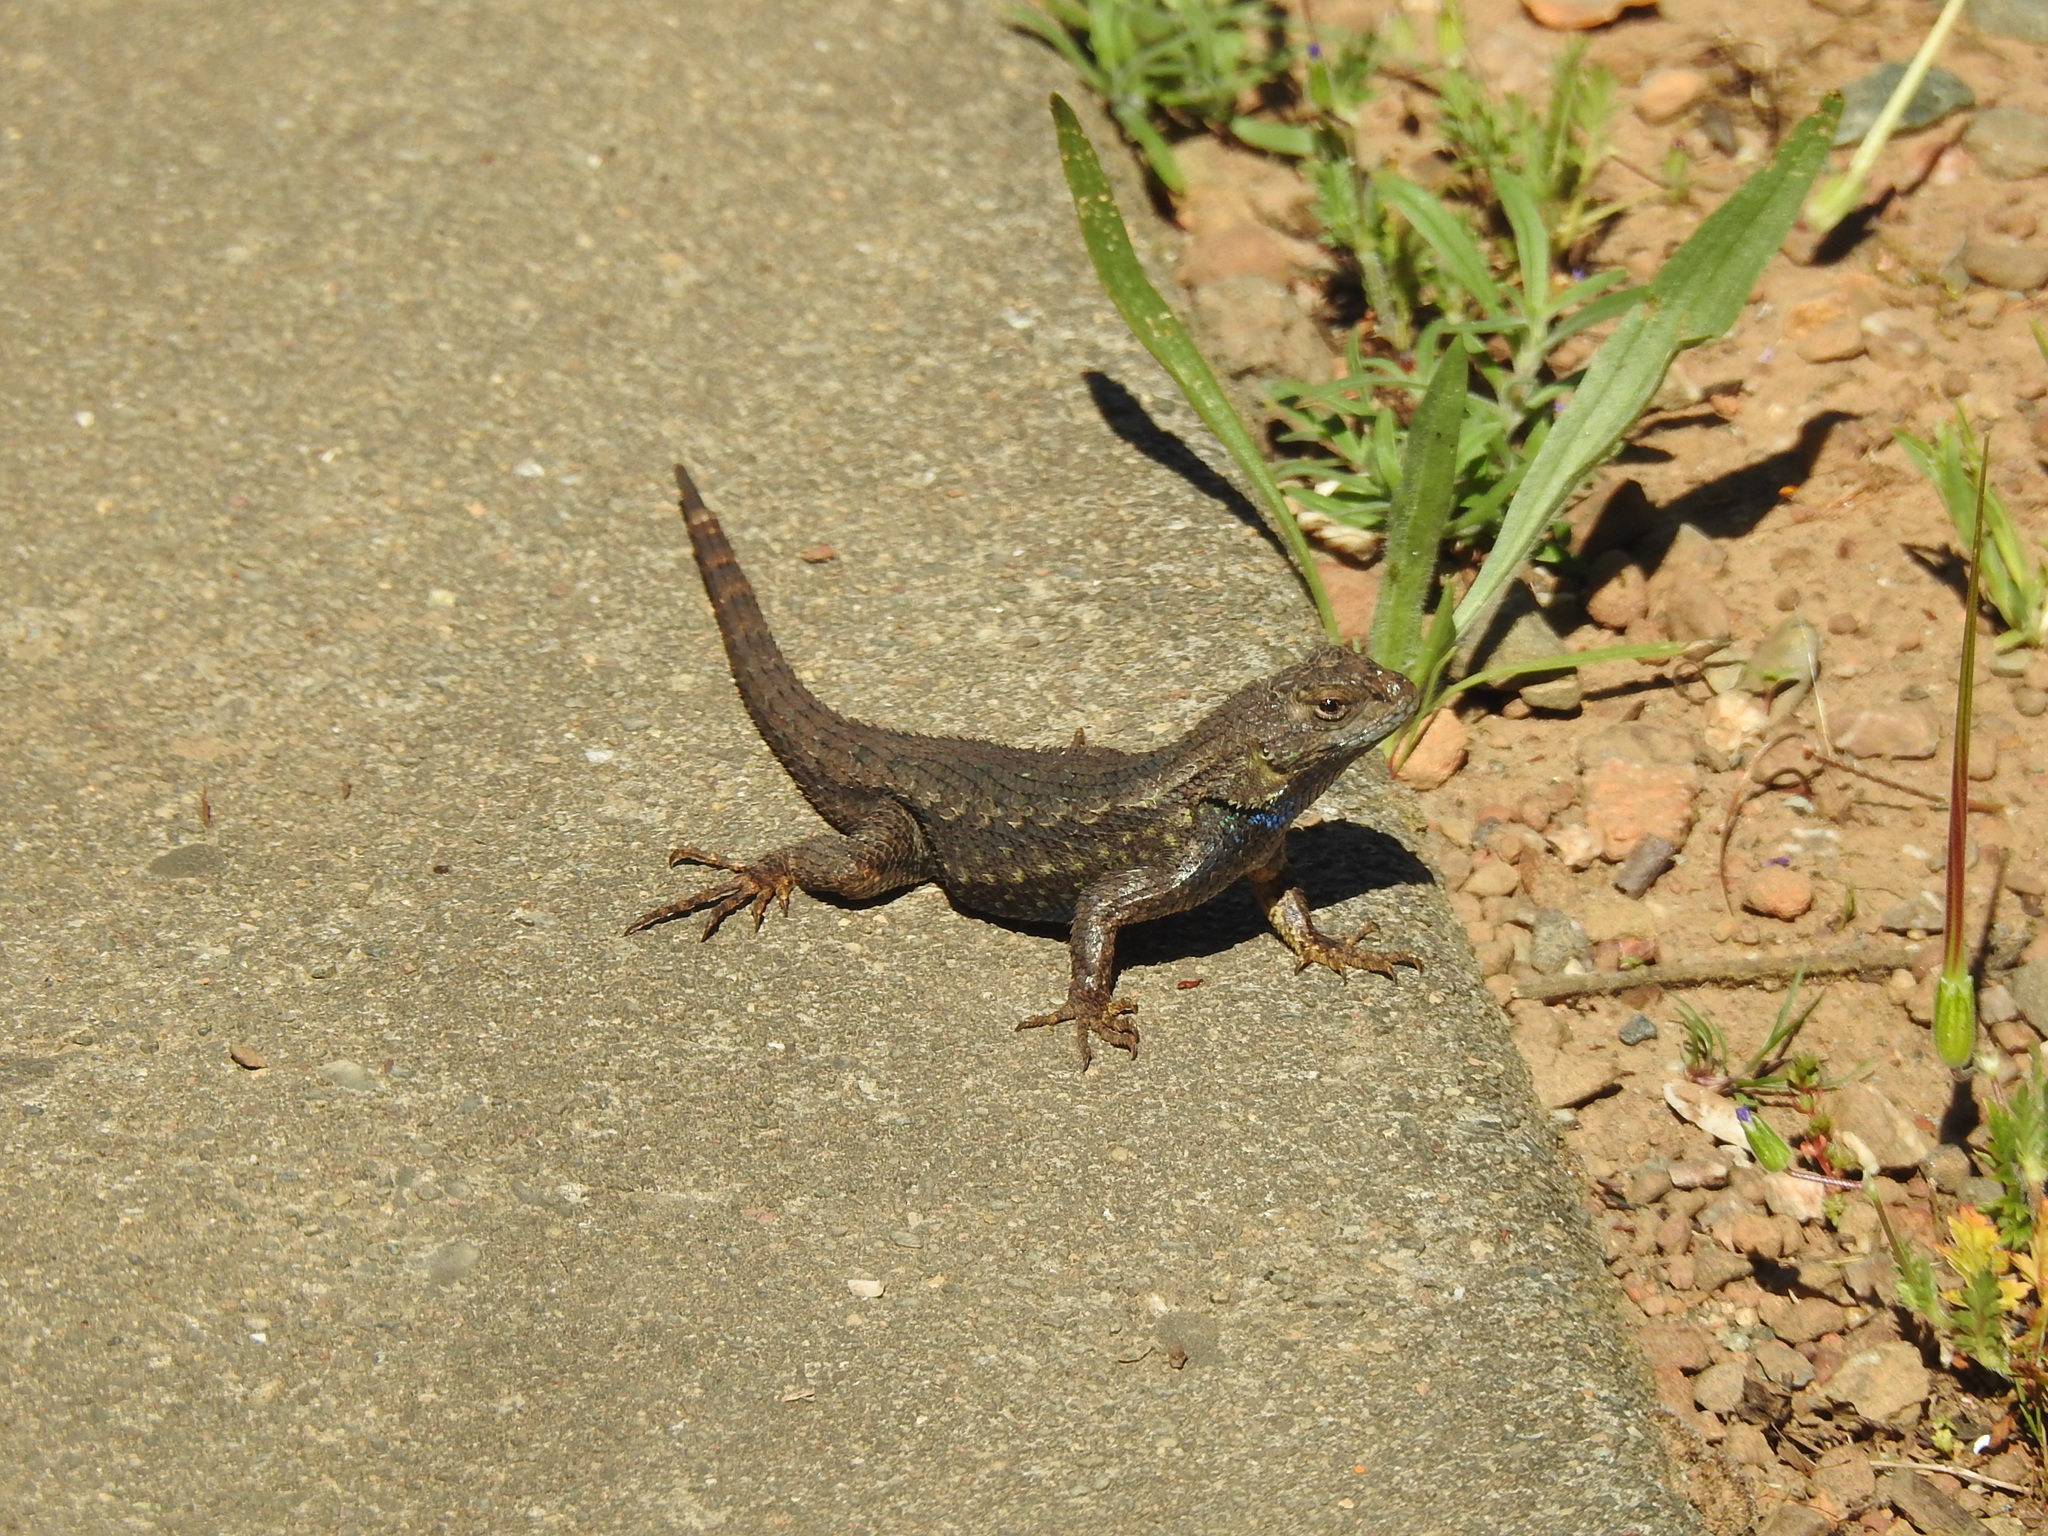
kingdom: Animalia
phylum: Chordata
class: Squamata
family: Phrynosomatidae
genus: Sceloporus
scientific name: Sceloporus occidentalis
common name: Western fence lizard
